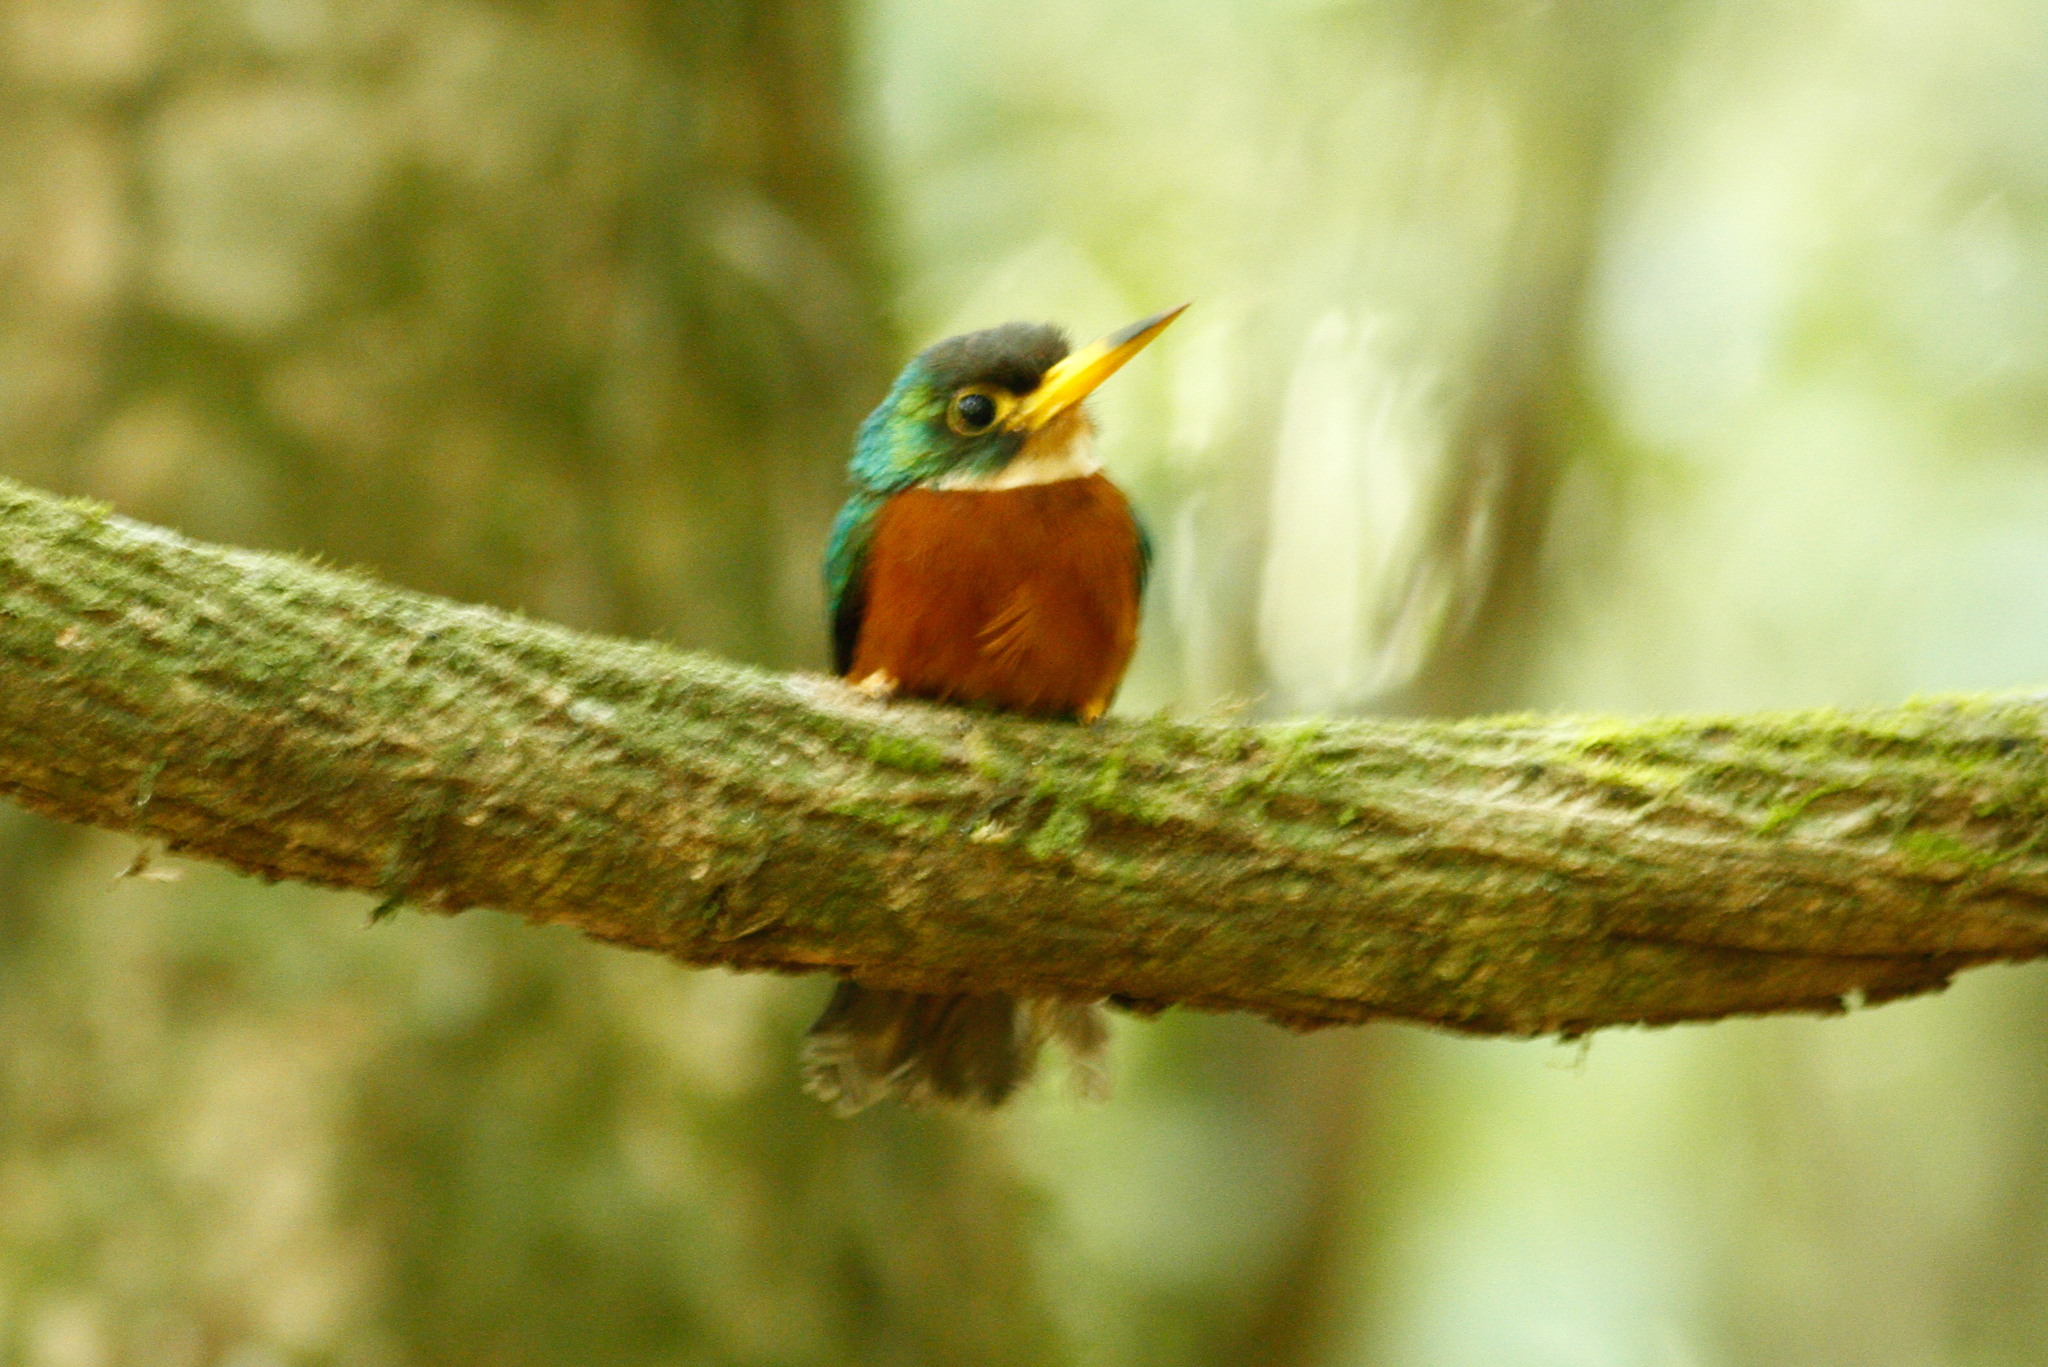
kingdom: Animalia
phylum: Chordata
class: Aves
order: Piciformes
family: Galbulidae
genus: Galbula
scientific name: Galbula albirostris
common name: Yellow-billed jacamar
